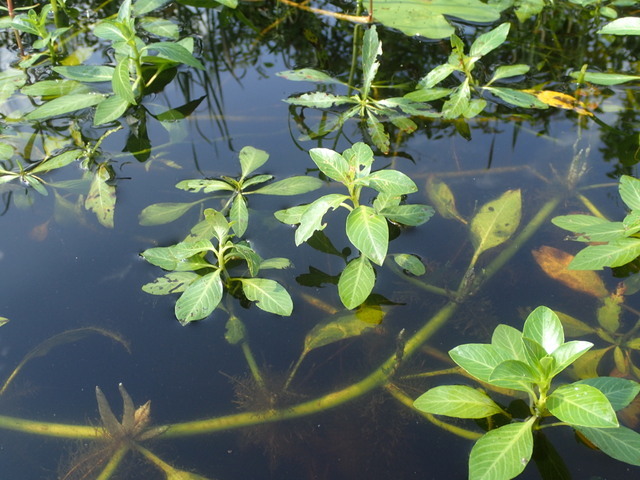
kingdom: Plantae
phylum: Tracheophyta
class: Magnoliopsida
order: Myrtales
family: Onagraceae
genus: Ludwigia
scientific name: Ludwigia peploides
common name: Floating primrose-willow
